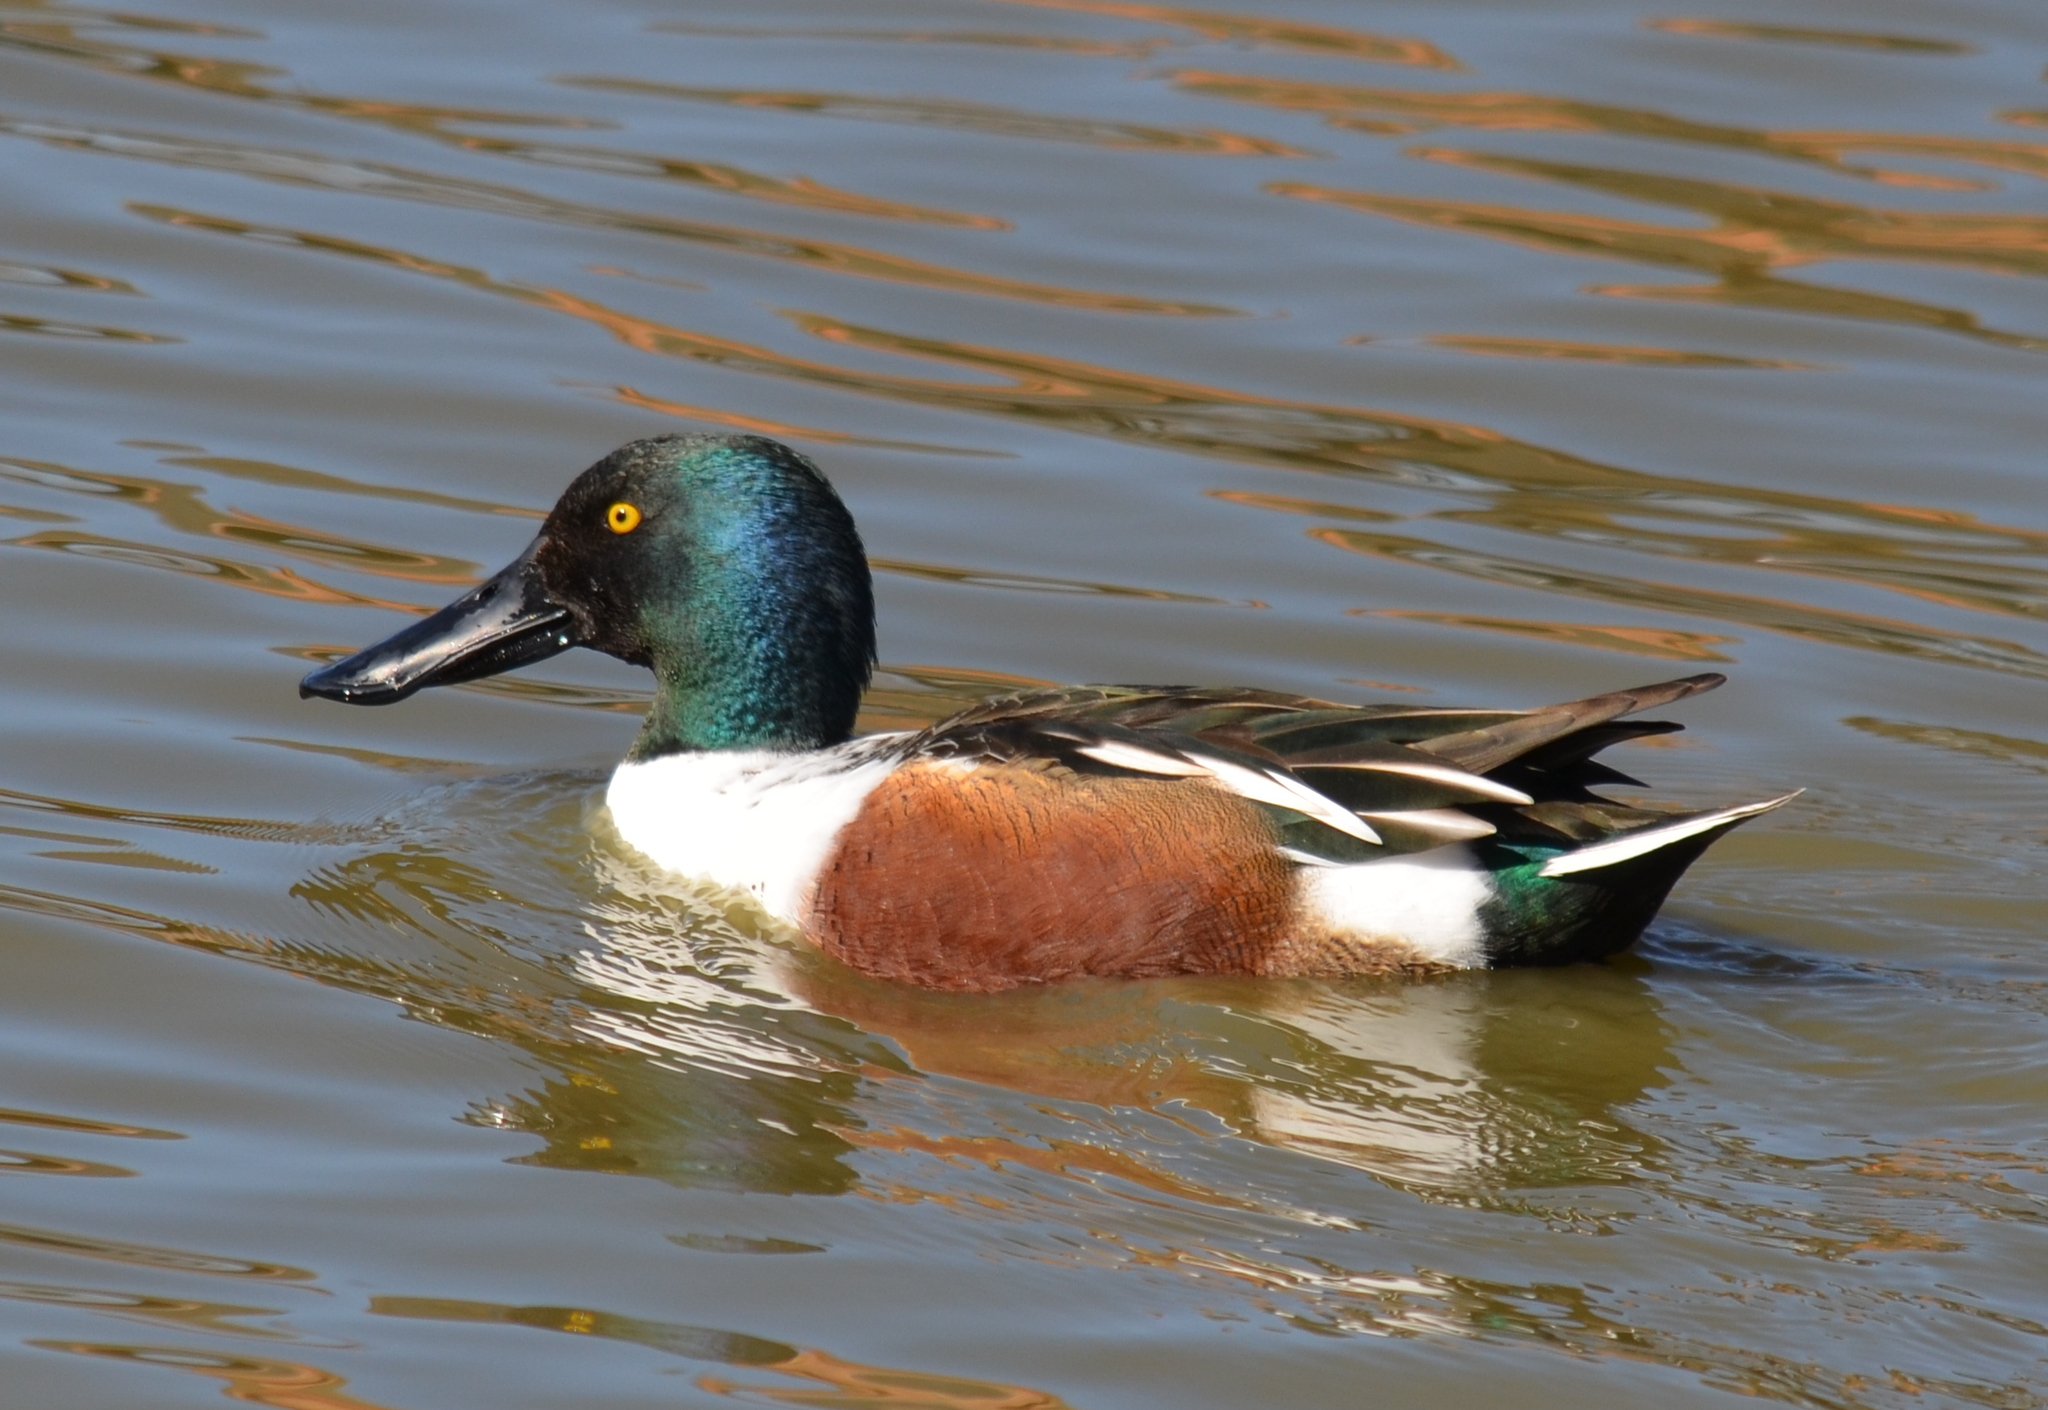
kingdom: Animalia
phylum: Chordata
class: Aves
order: Anseriformes
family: Anatidae
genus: Spatula
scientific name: Spatula clypeata
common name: Northern shoveler
